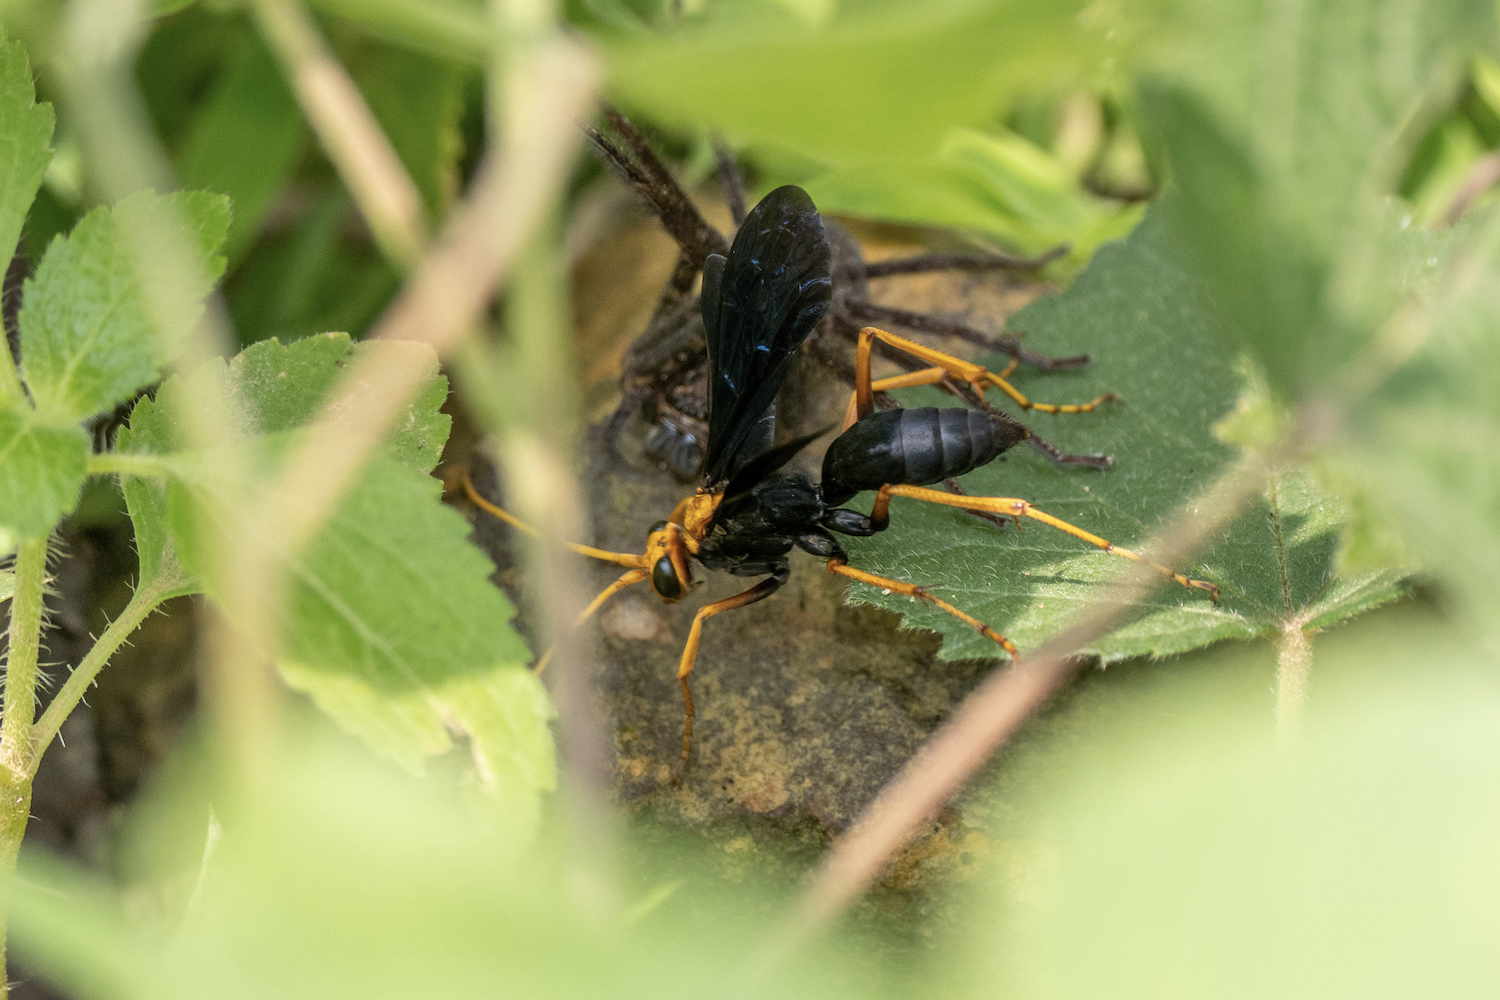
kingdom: Animalia
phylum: Arthropoda
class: Insecta
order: Hymenoptera
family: Pompilidae
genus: Cyphononyx
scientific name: Cyphononyx bipartitus
